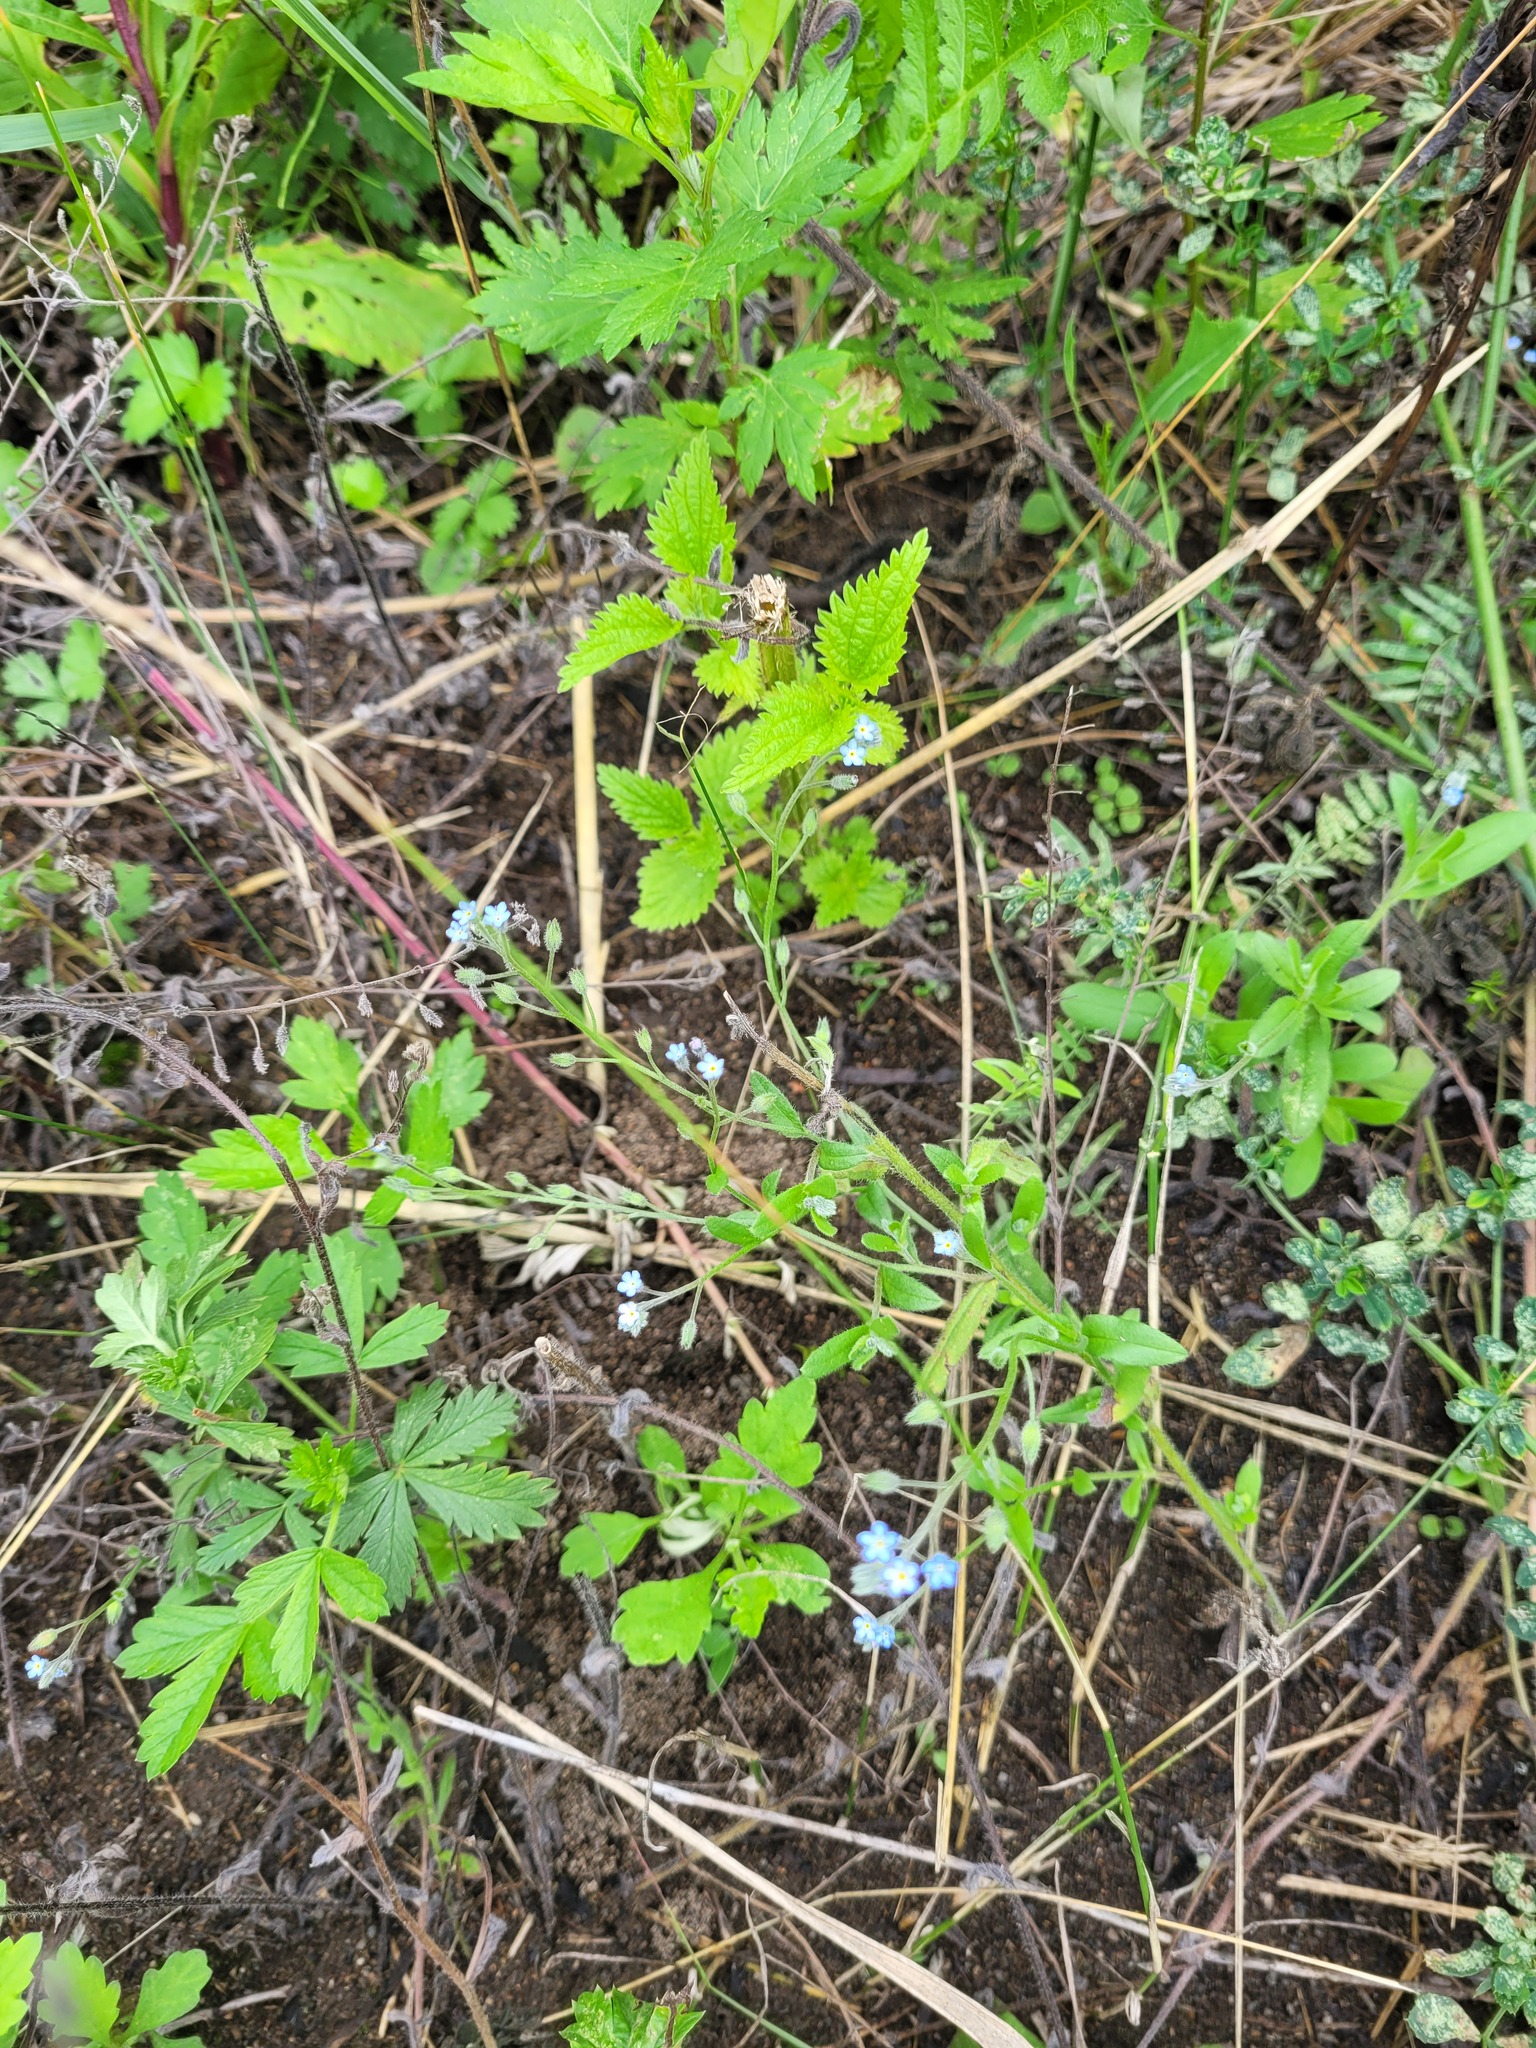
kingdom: Plantae
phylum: Tracheophyta
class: Magnoliopsida
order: Boraginales
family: Boraginaceae
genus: Myosotis
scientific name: Myosotis arvensis
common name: Field forget-me-not
